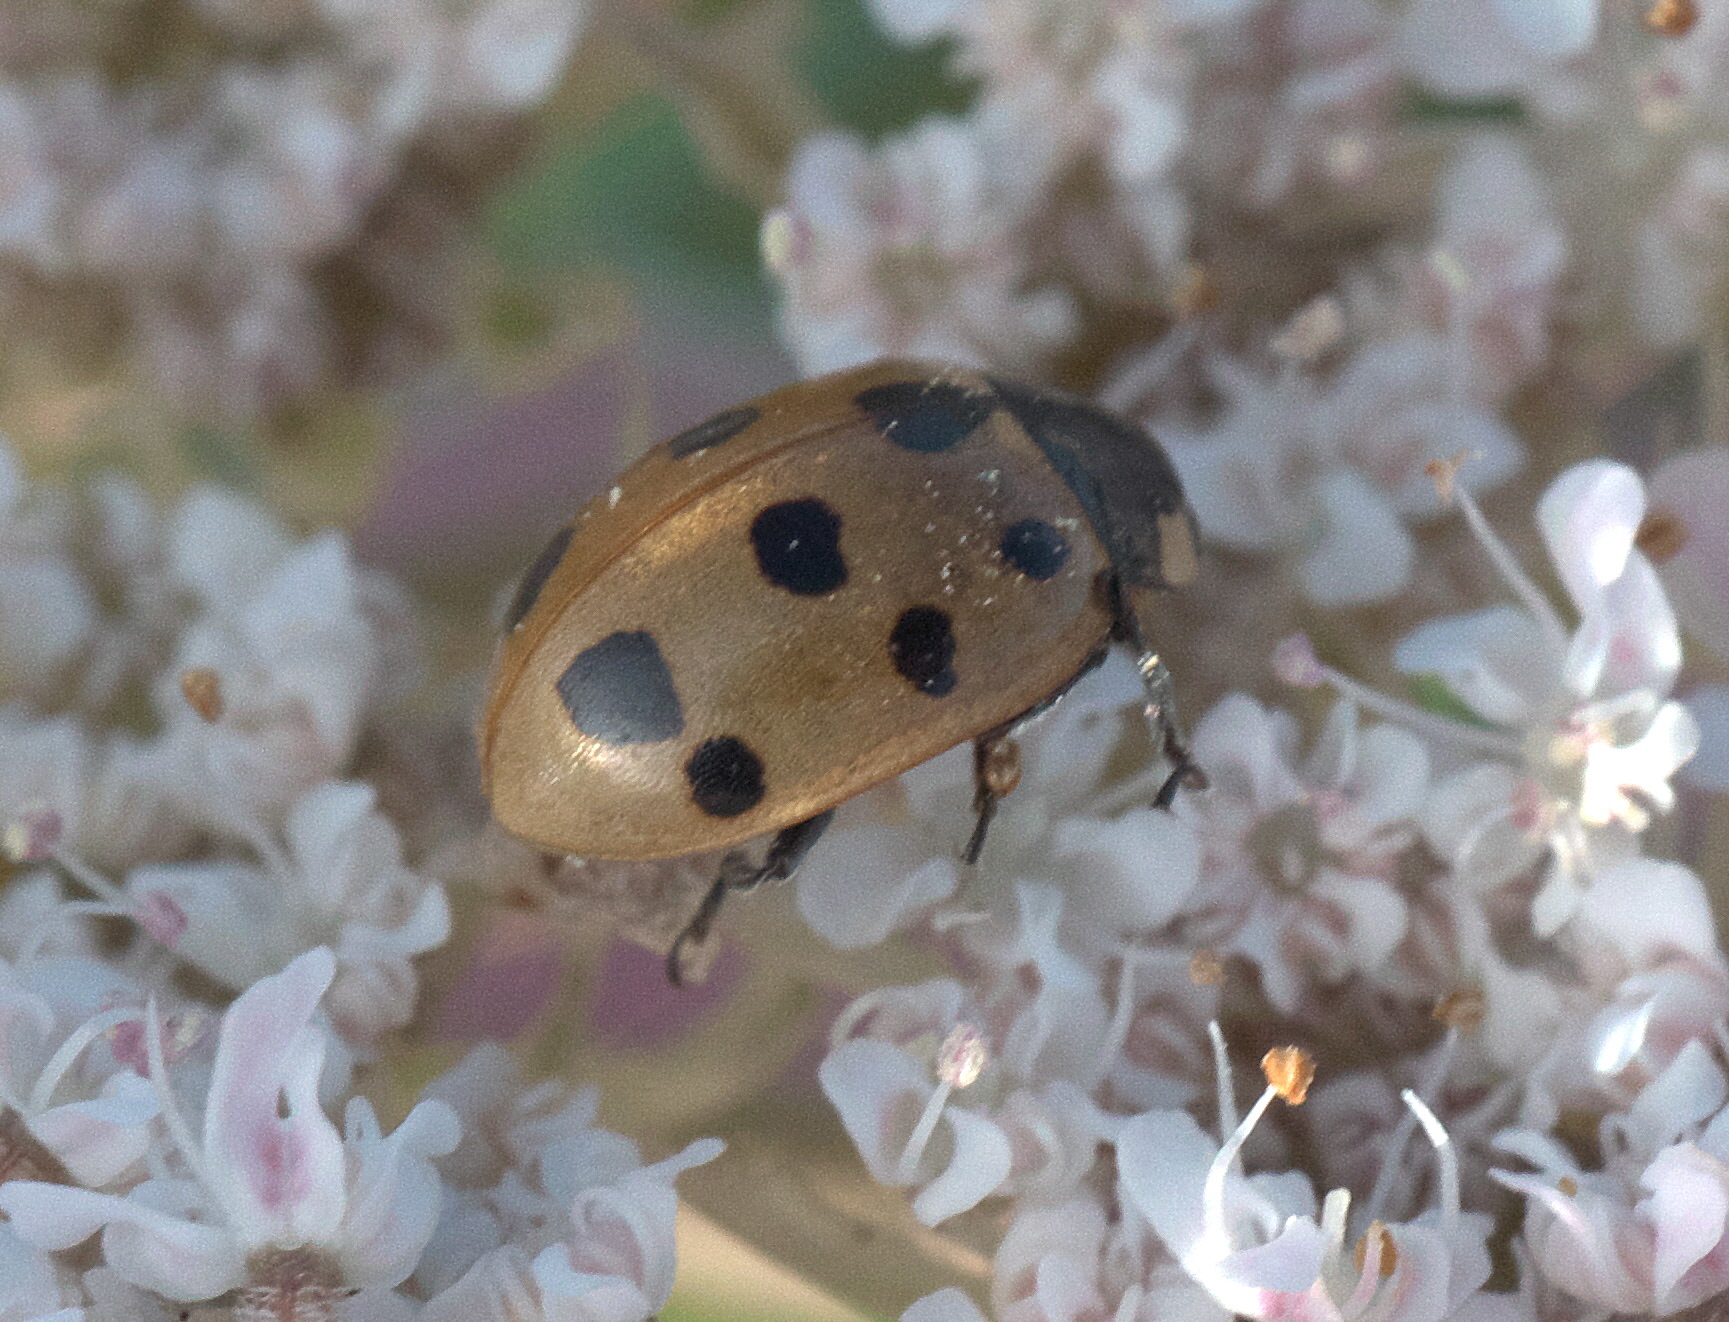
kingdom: Animalia
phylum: Arthropoda
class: Insecta
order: Coleoptera
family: Coccinellidae
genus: Coccinella
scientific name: Coccinella undecimpunctata
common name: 11-spot ladybird
